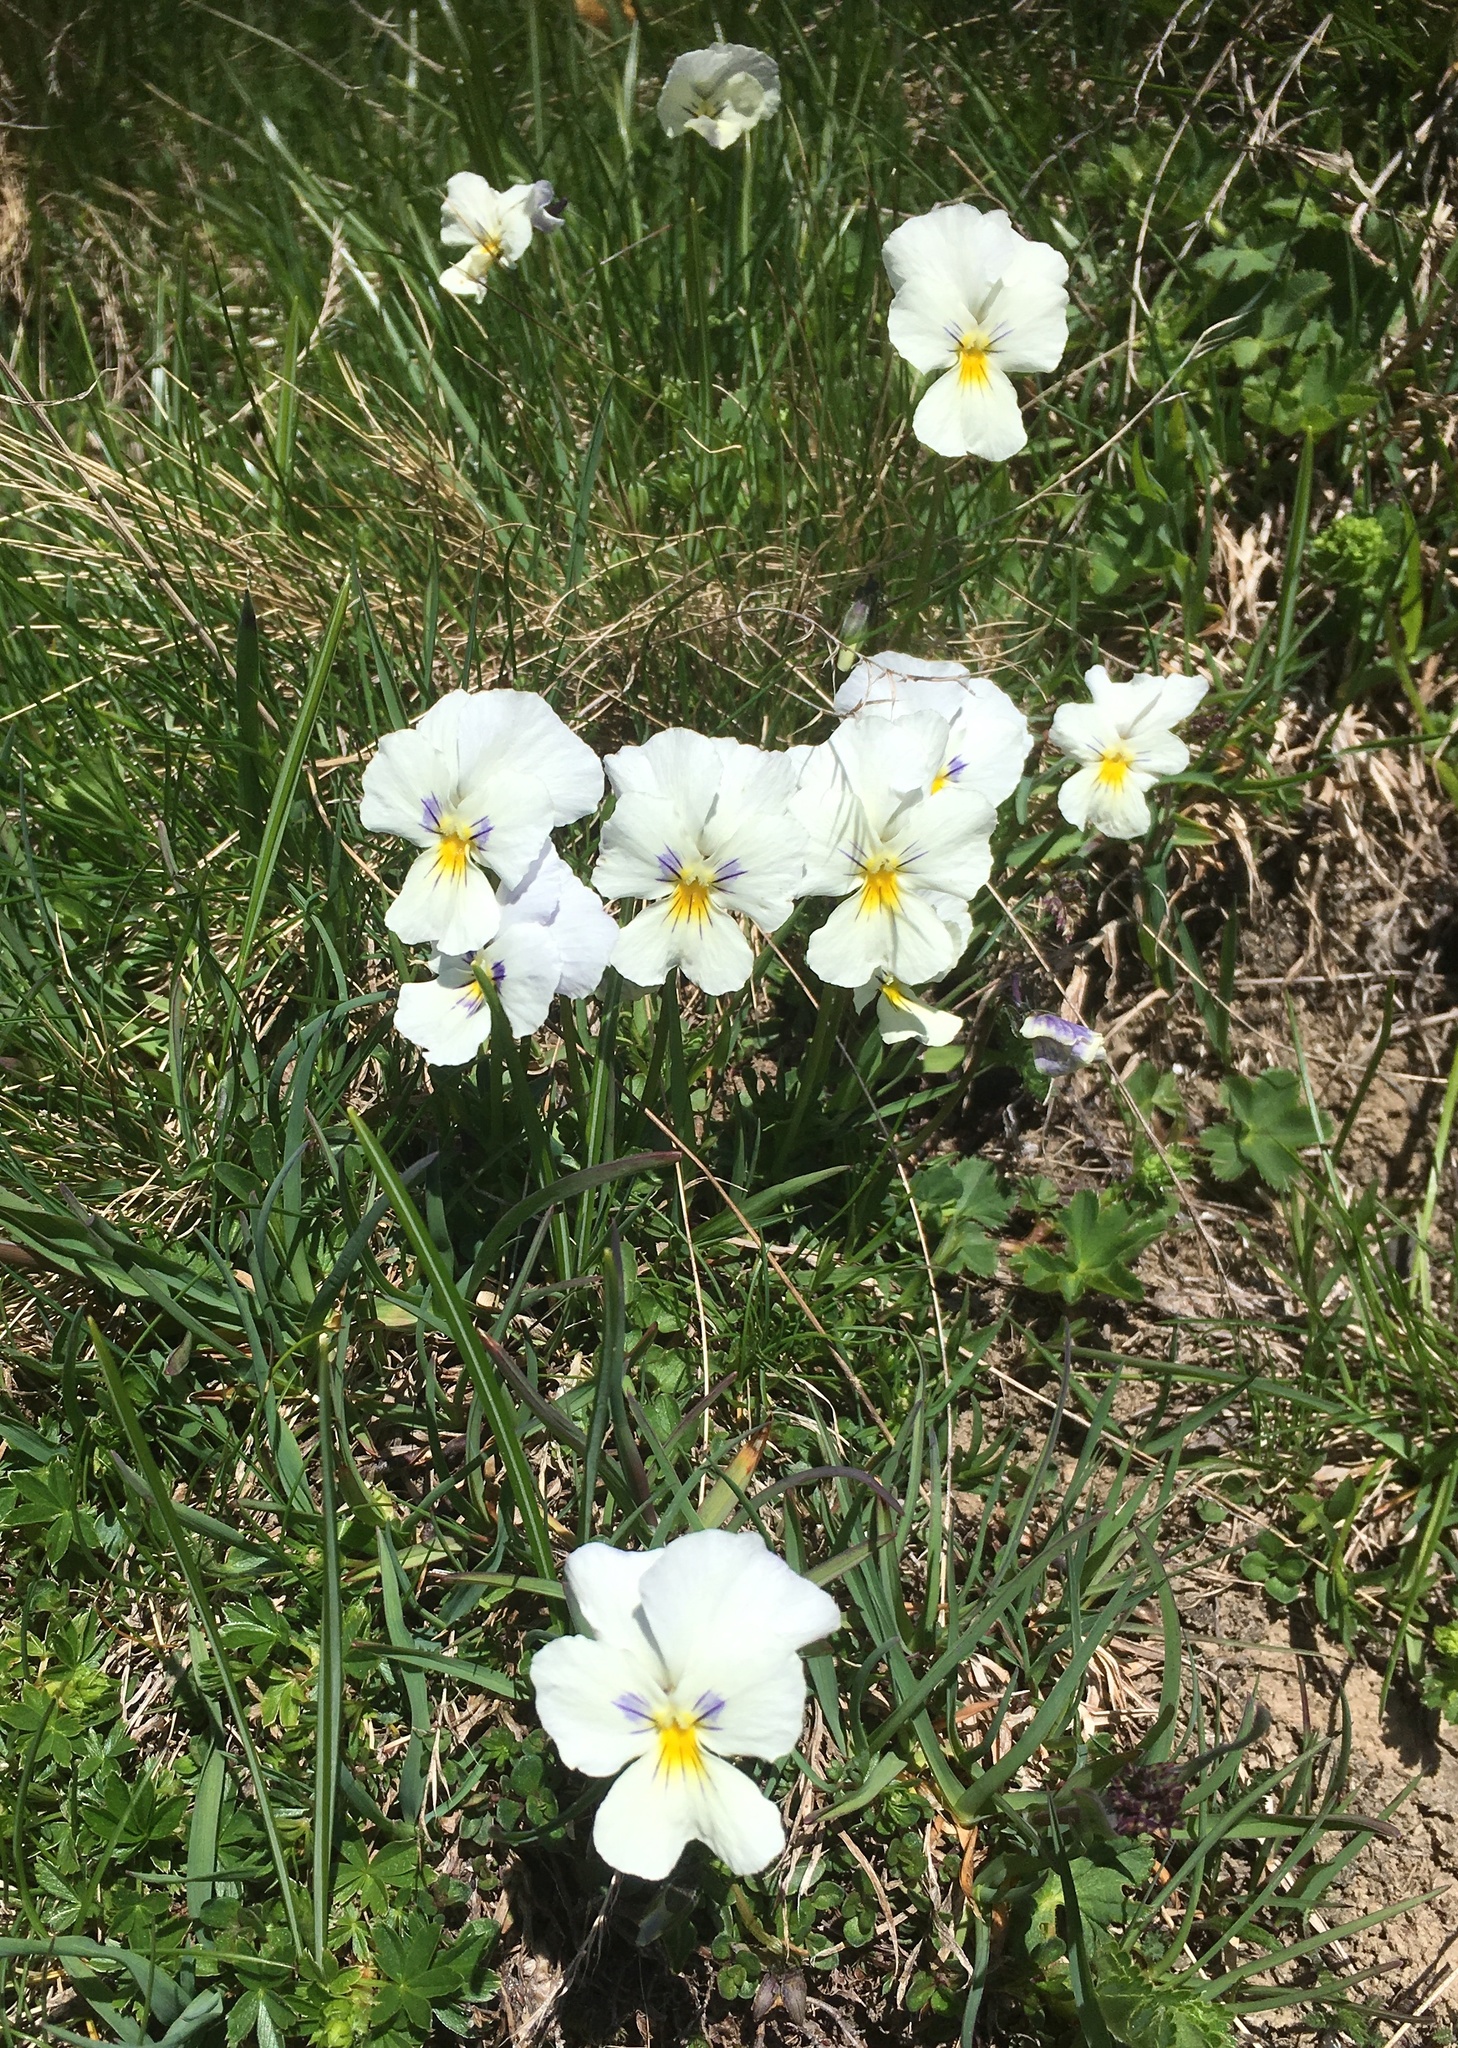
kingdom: Plantae
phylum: Tracheophyta
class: Magnoliopsida
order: Malpighiales
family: Violaceae
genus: Viola
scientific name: Viola calcarata
